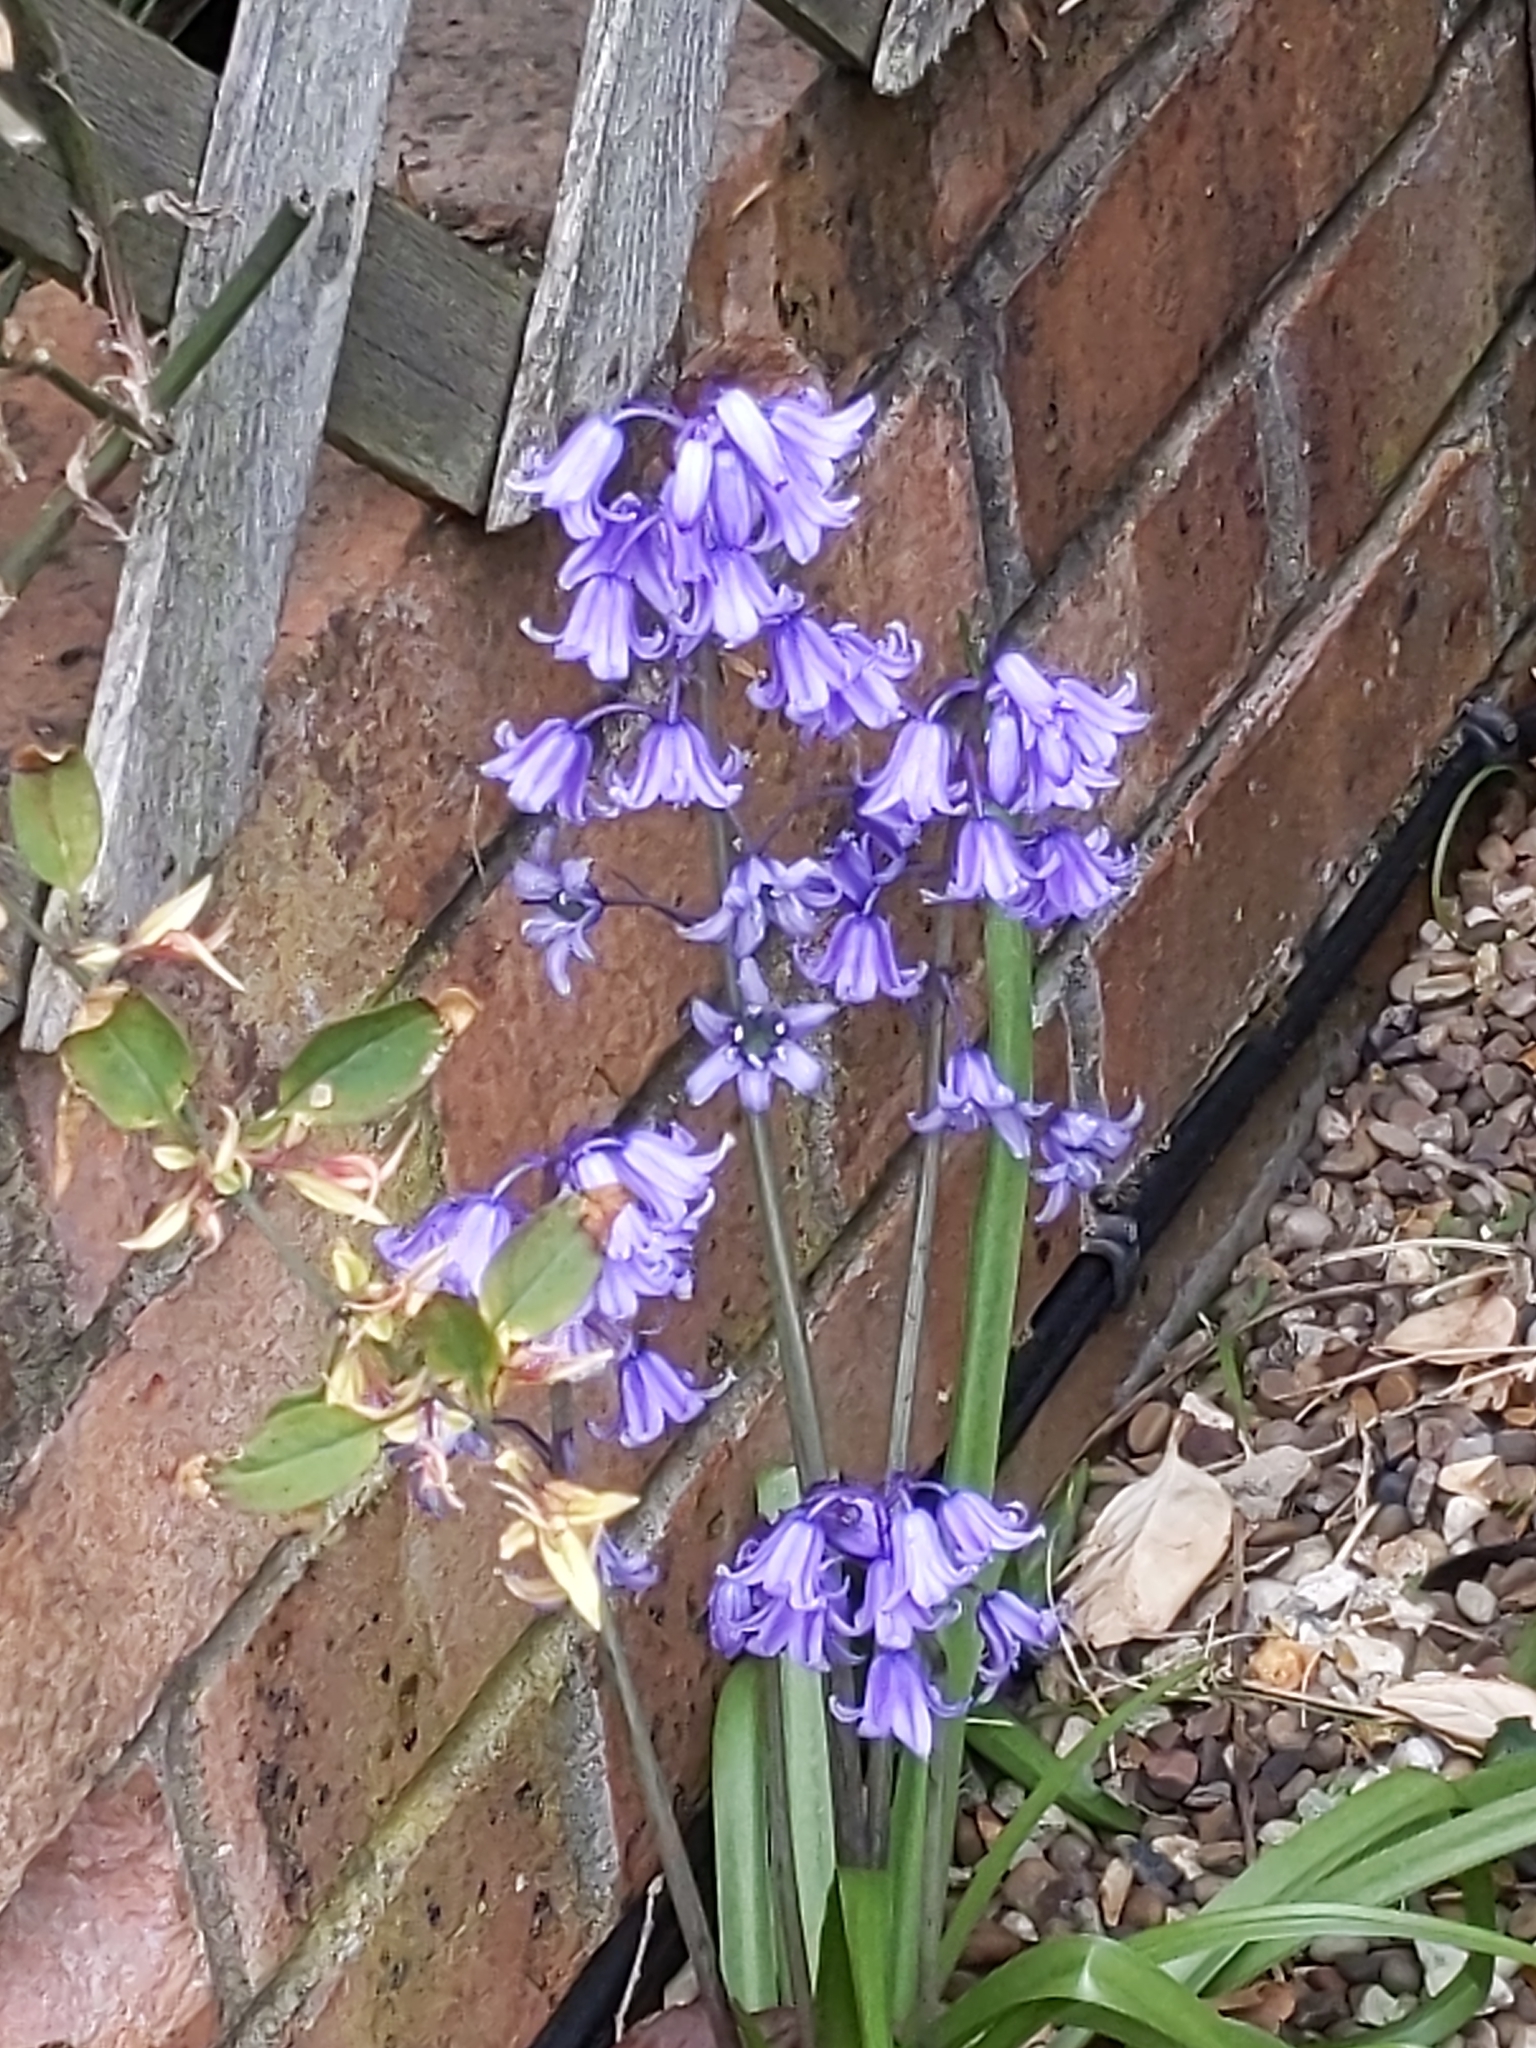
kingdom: Plantae
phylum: Tracheophyta
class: Liliopsida
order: Asparagales
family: Asparagaceae
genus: Hyacinthoides
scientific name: Hyacinthoides massartiana
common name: Hyacinthoides
